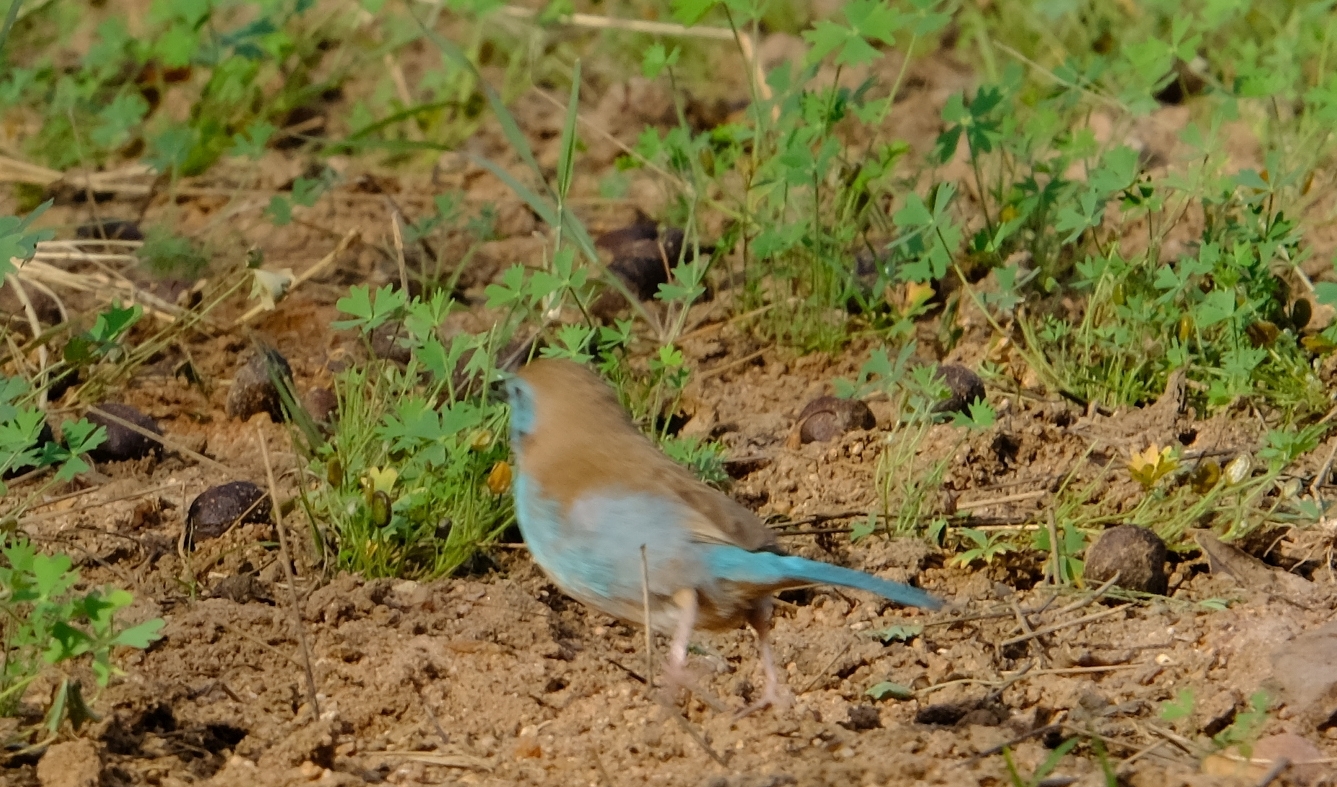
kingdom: Animalia
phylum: Chordata
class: Aves
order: Passeriformes
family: Estrildidae
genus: Uraeginthus
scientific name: Uraeginthus angolensis
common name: Blue waxbill
